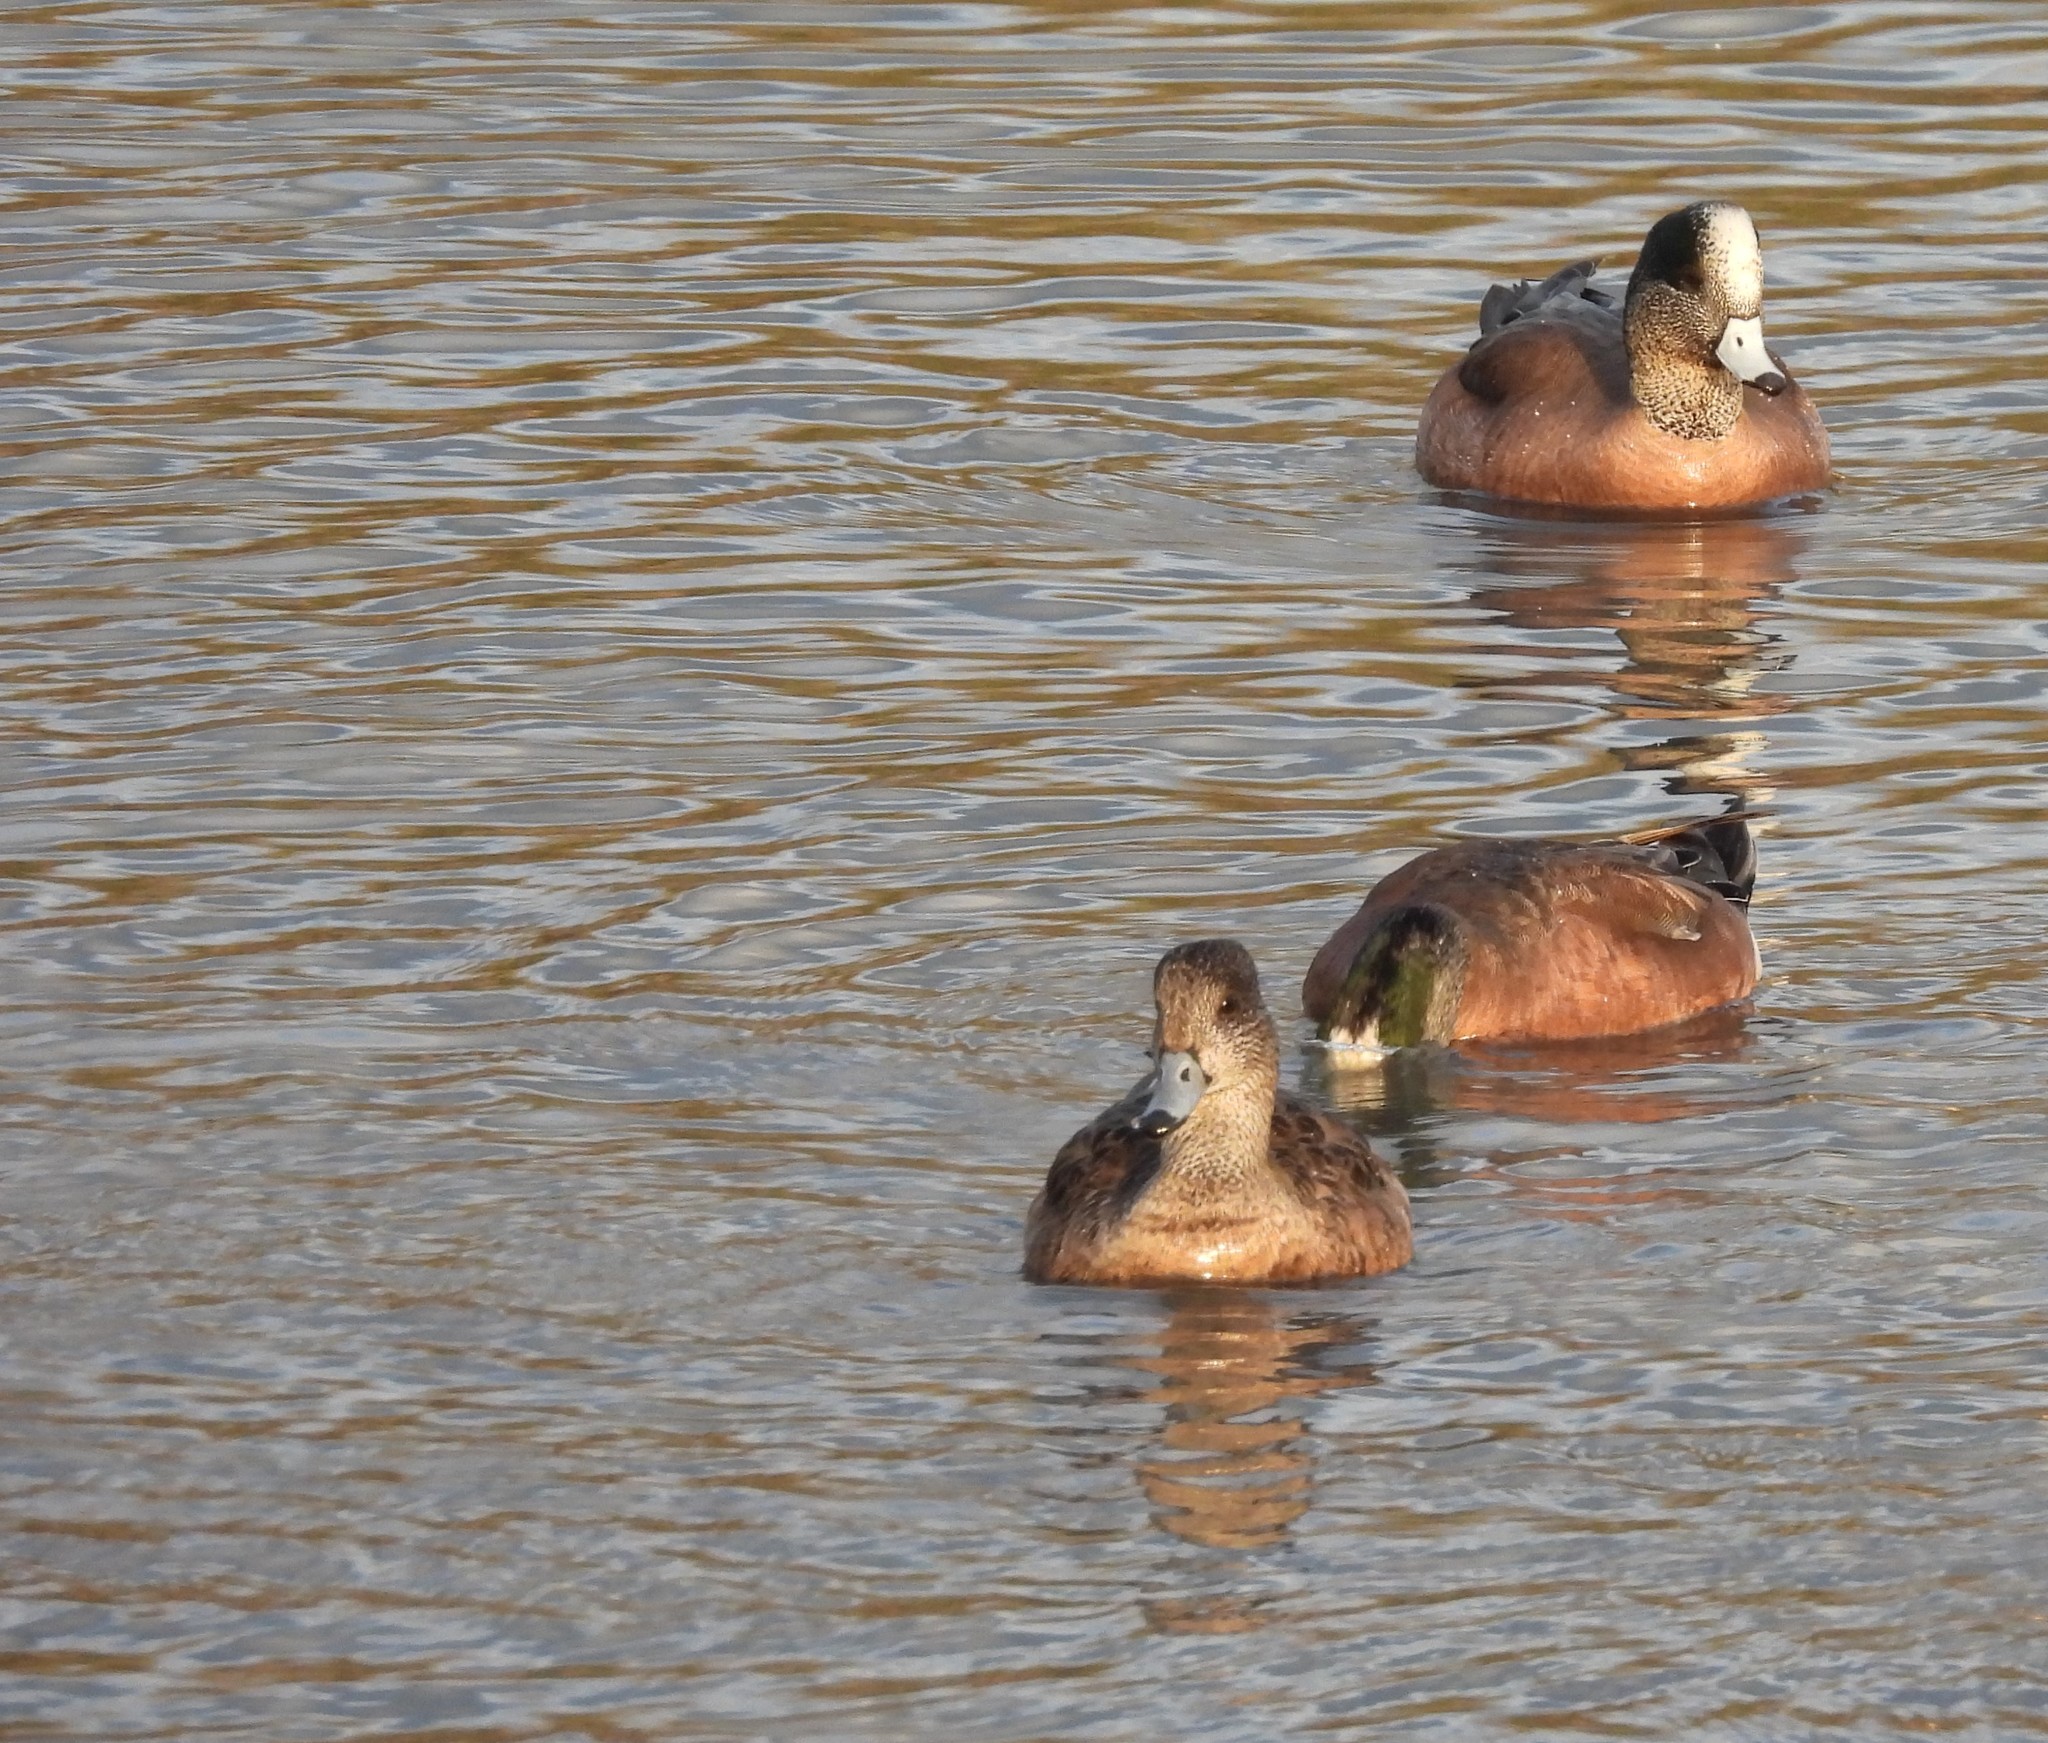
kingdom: Animalia
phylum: Chordata
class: Aves
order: Anseriformes
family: Anatidae
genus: Mareca
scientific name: Mareca americana
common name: American wigeon
